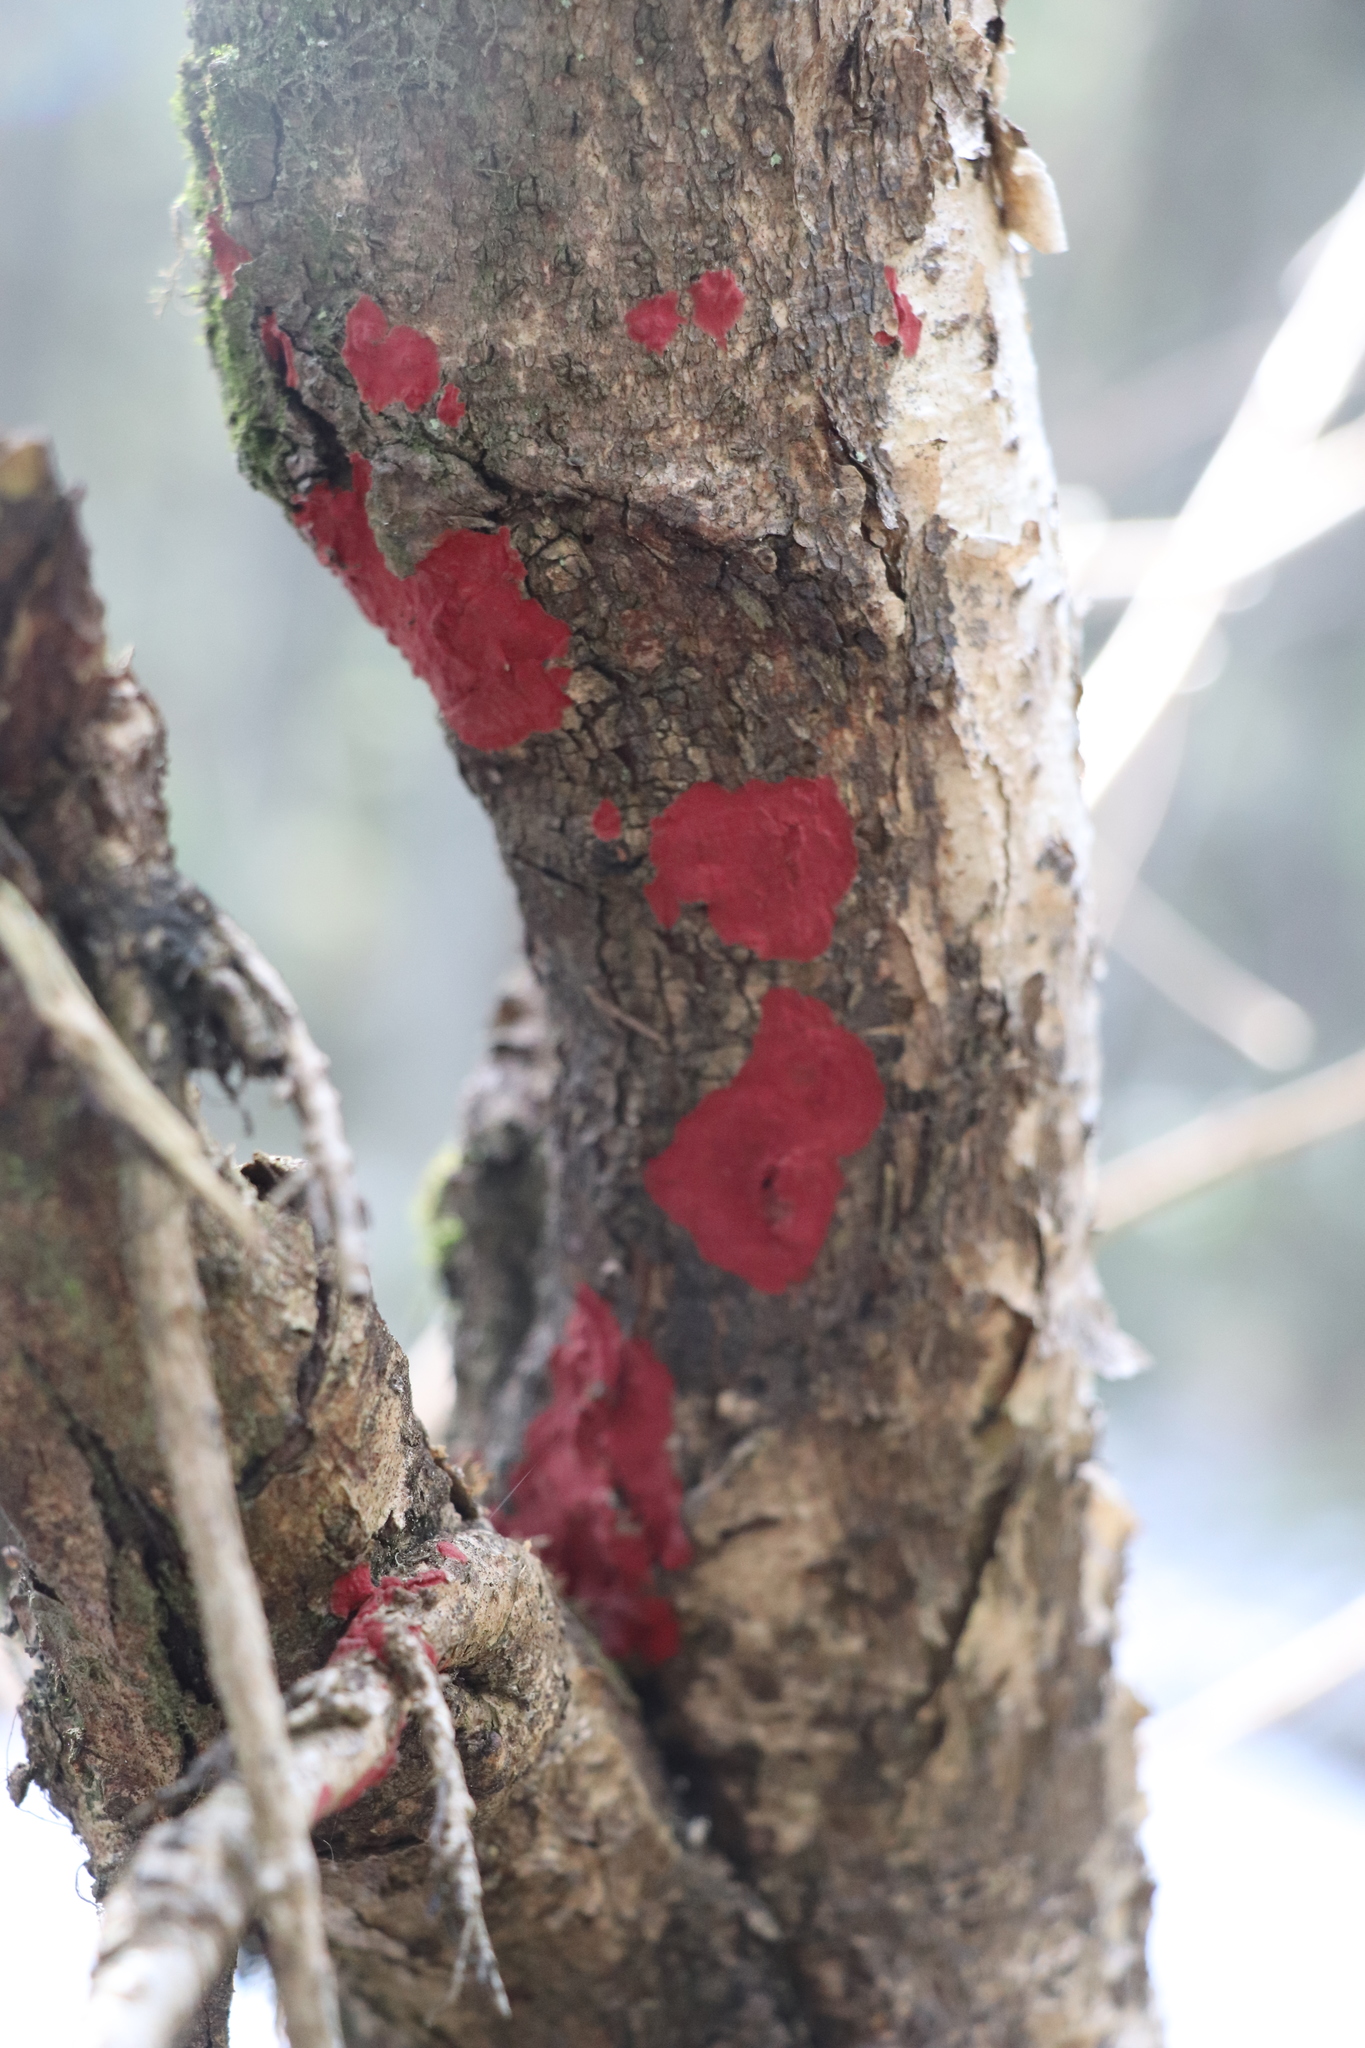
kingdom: Fungi
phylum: Basidiomycota
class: Agaricomycetes
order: Hymenochaetales
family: Hymenochaetaceae
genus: Hymenochaete
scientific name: Hymenochaete cruenta
